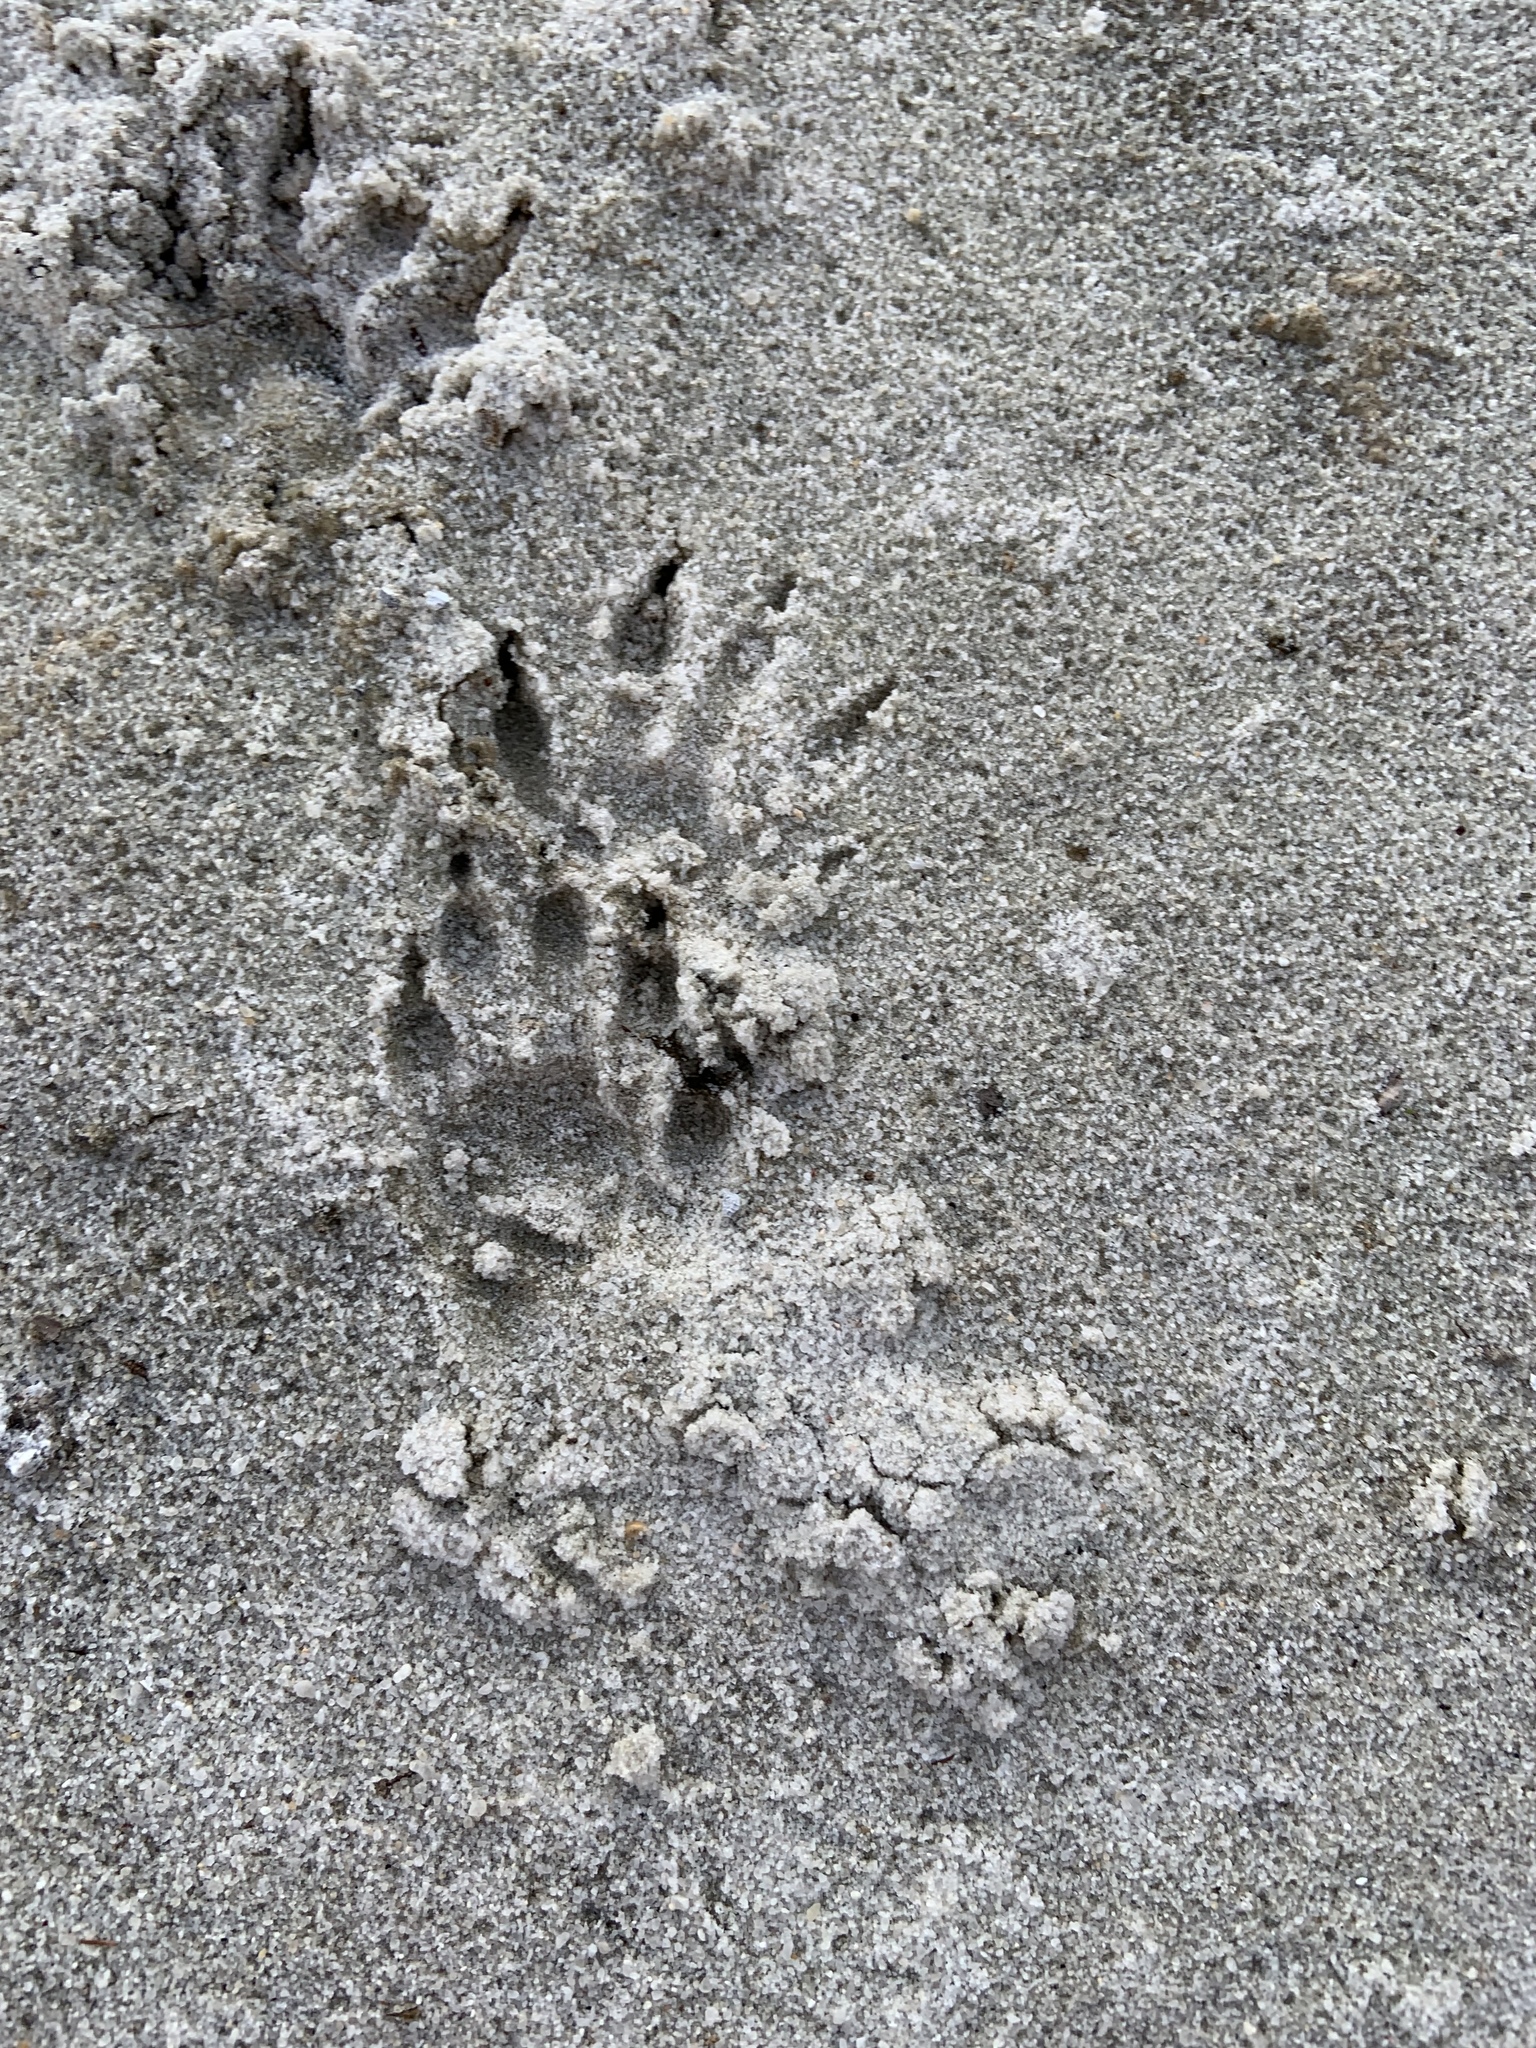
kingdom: Animalia
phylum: Chordata
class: Mammalia
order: Carnivora
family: Procyonidae
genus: Procyon
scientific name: Procyon lotor
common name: Raccoon
